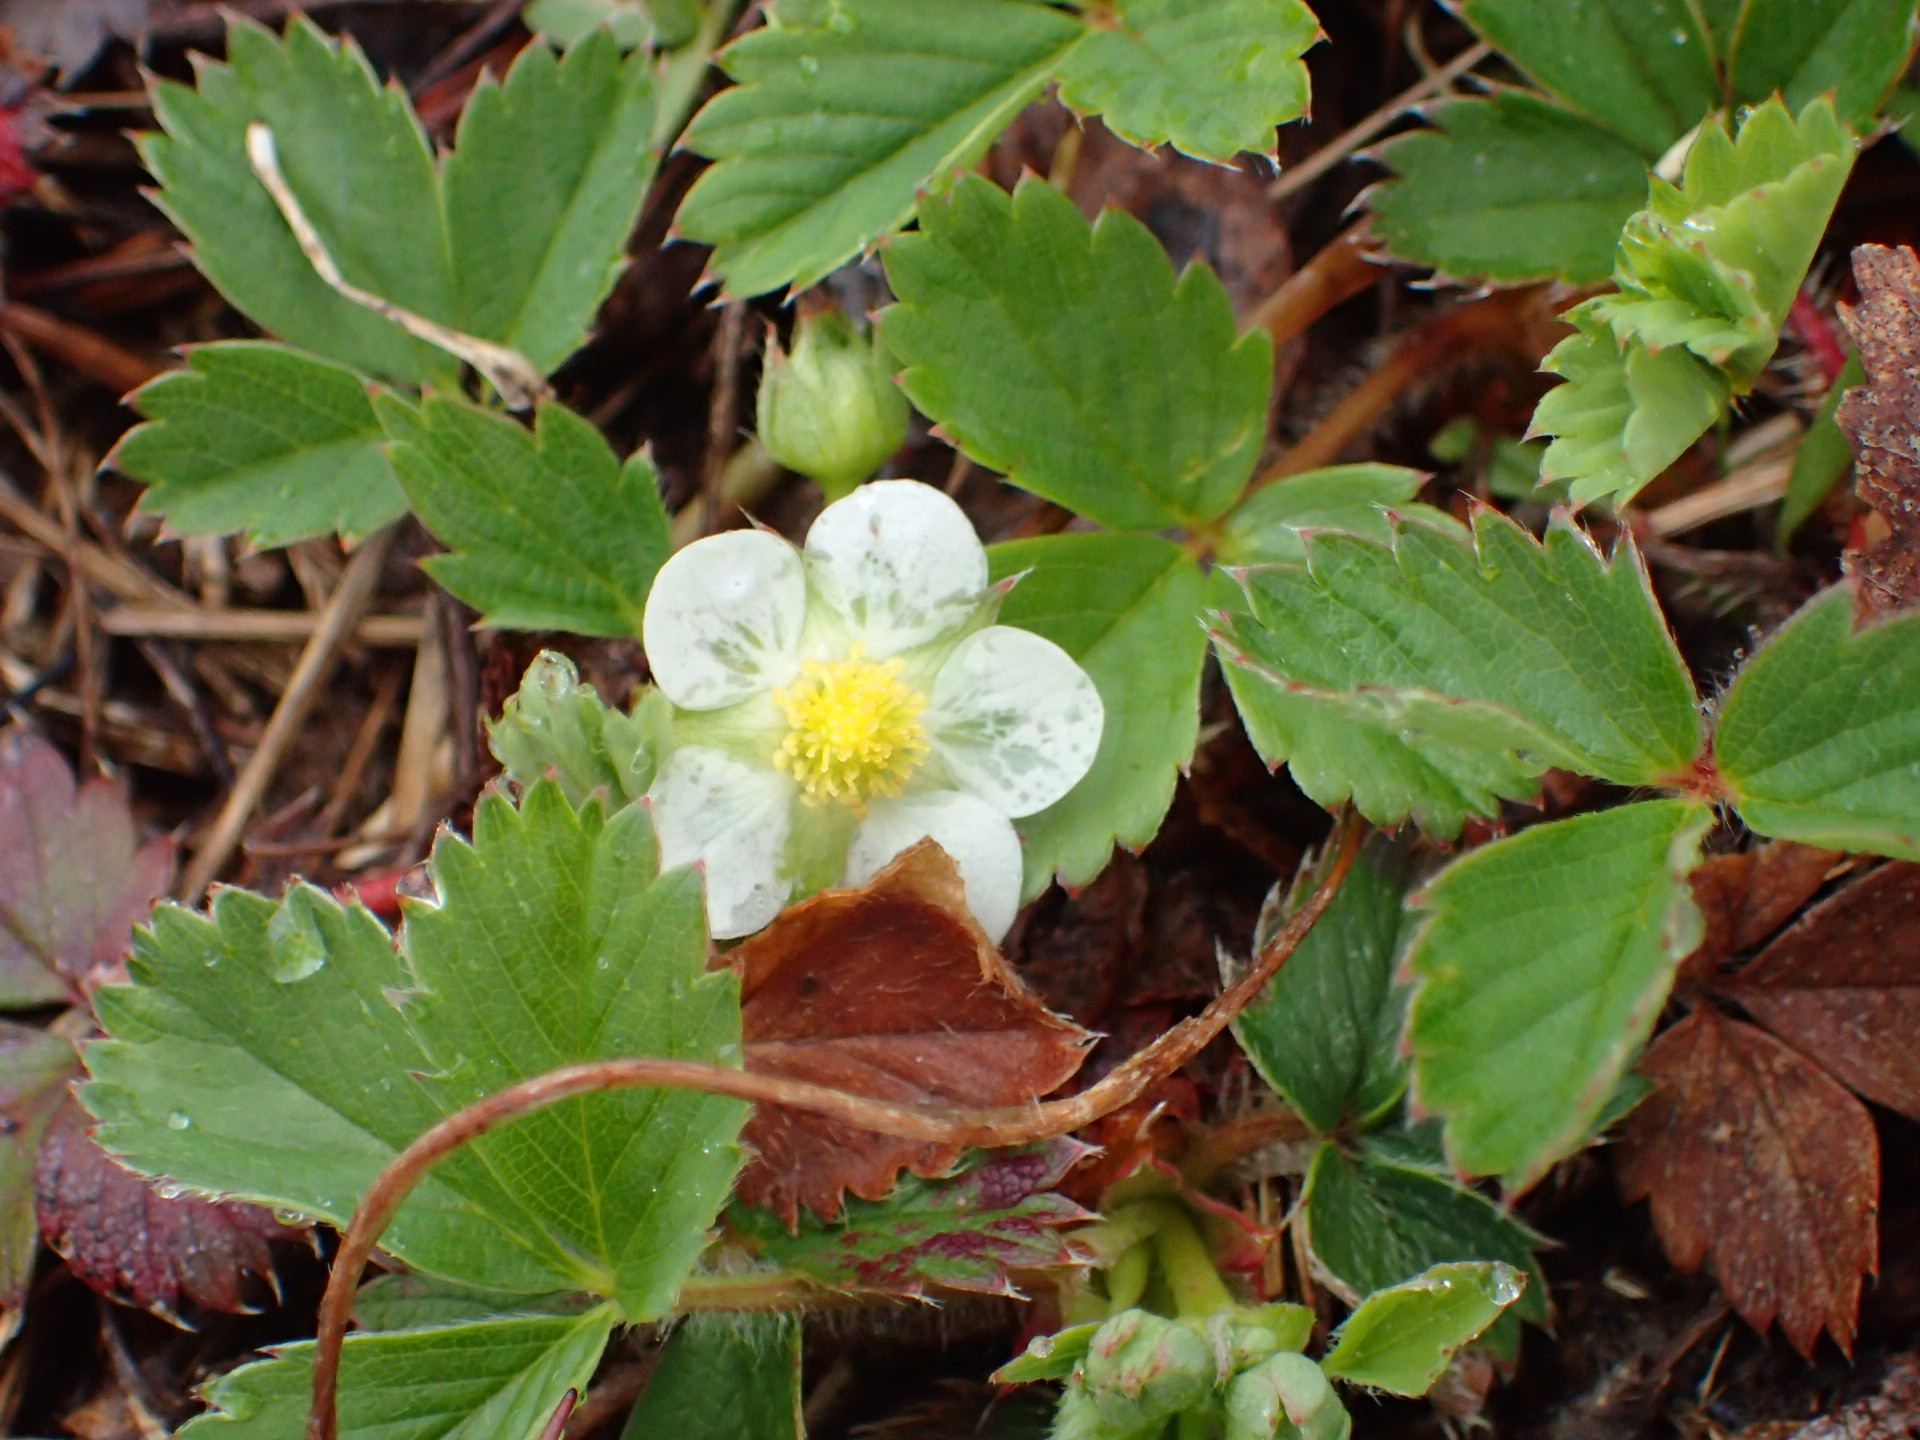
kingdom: Plantae
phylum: Tracheophyta
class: Magnoliopsida
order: Rosales
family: Rosaceae
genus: Fragaria
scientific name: Fragaria virginiana
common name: Thickleaved wild strawberry
